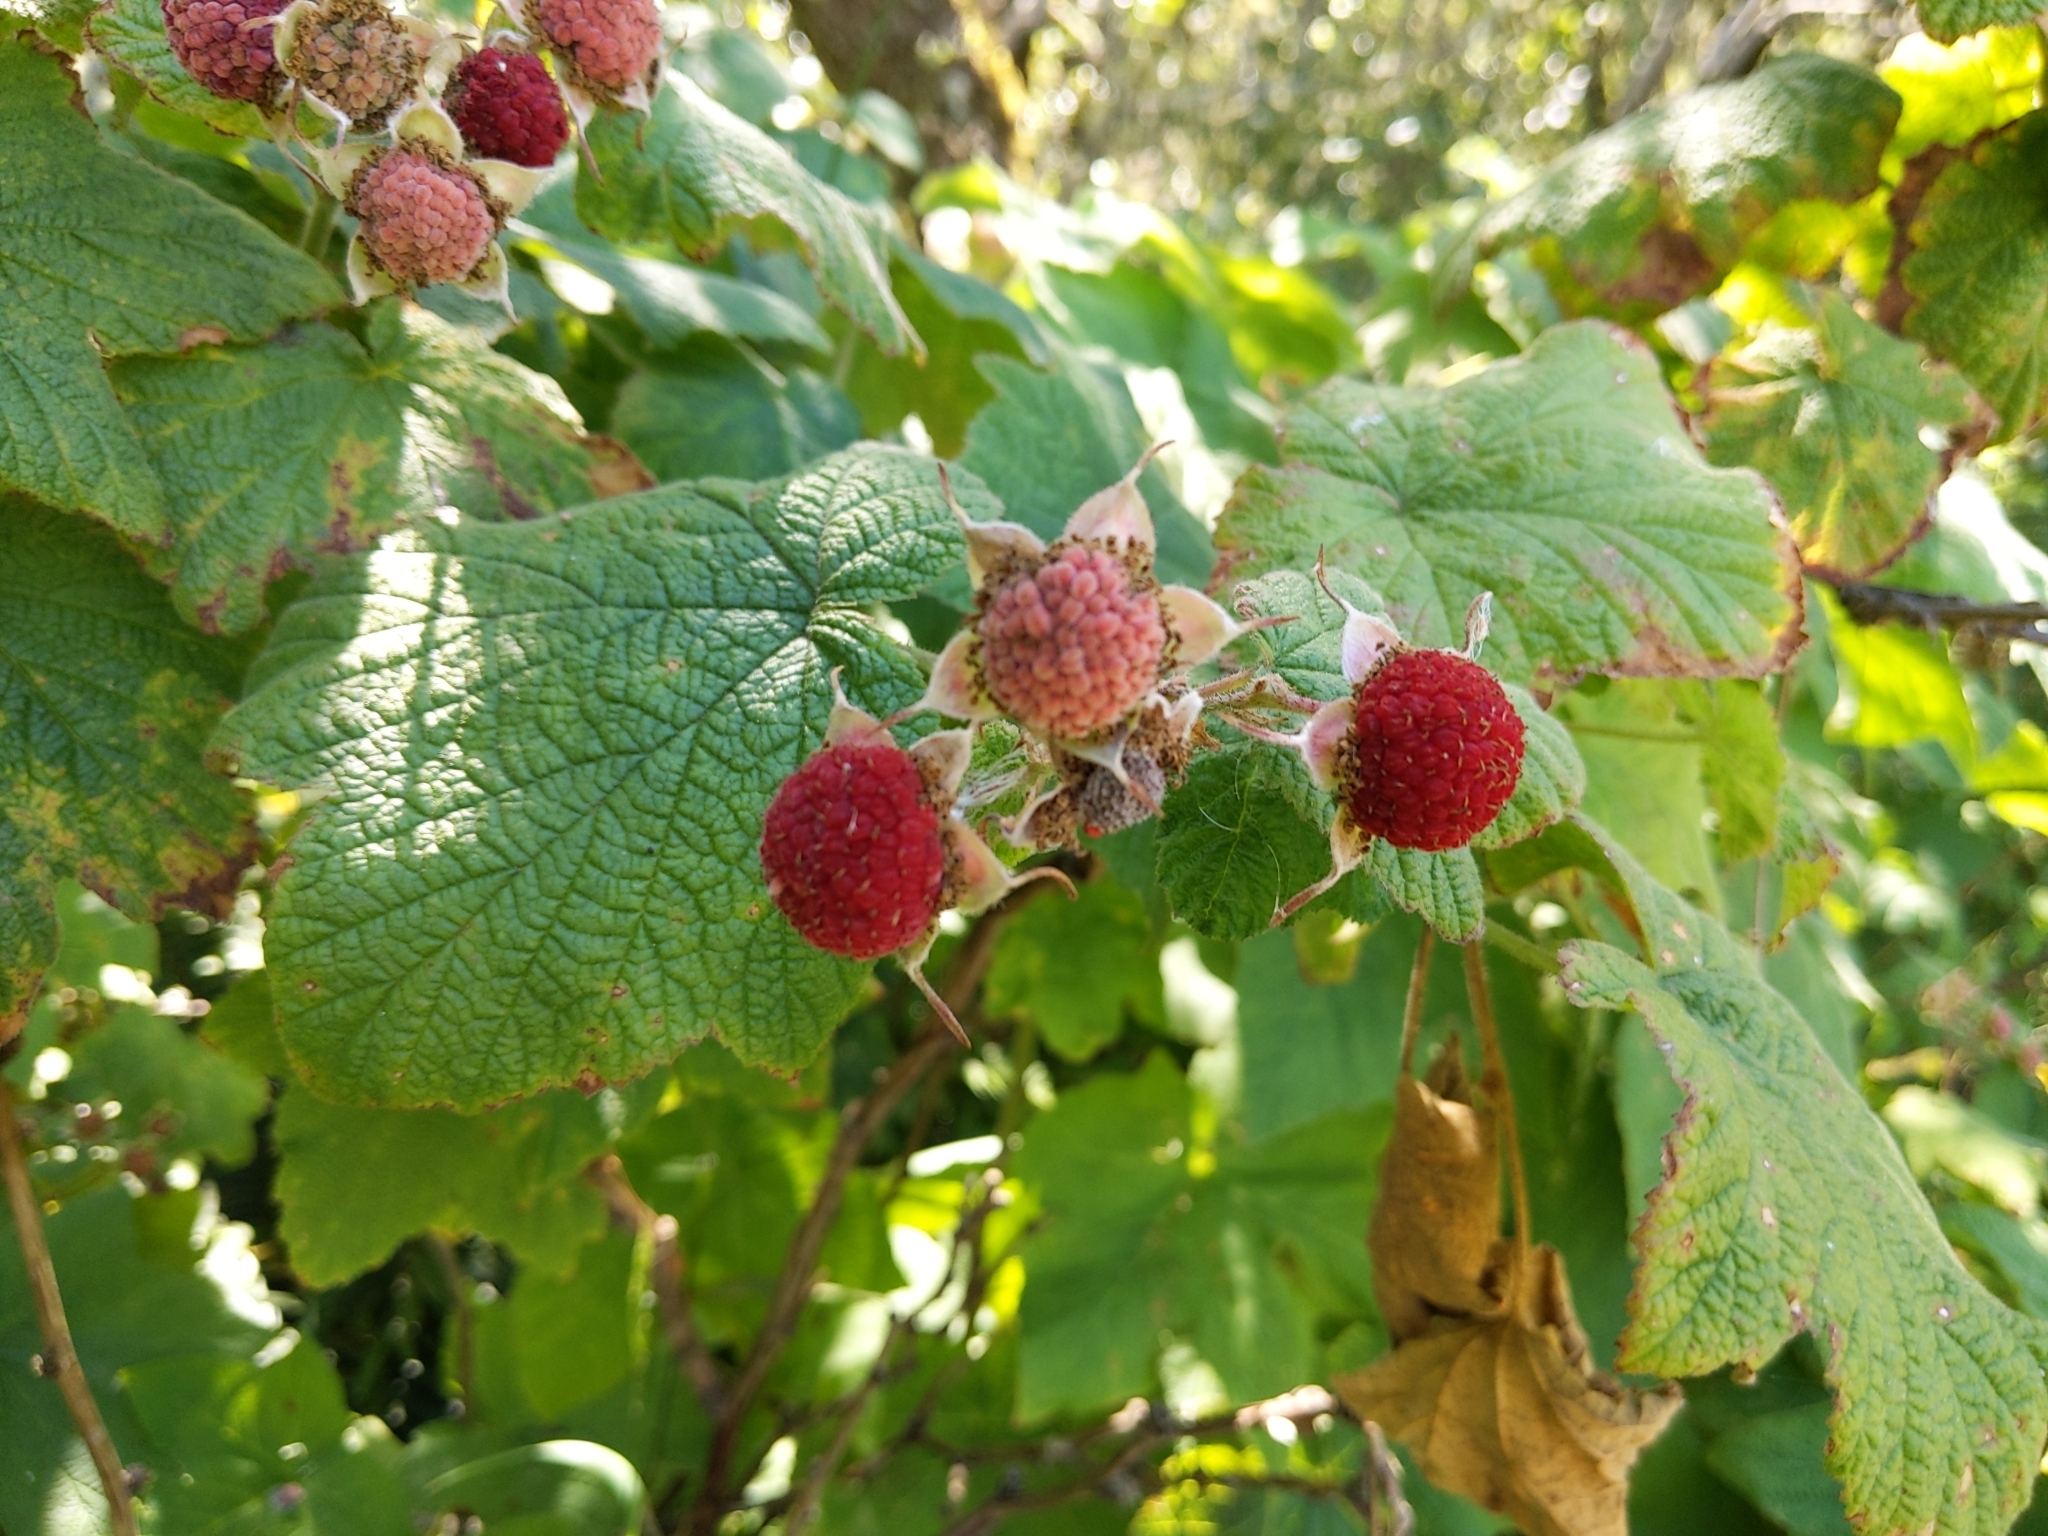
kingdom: Plantae
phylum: Tracheophyta
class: Magnoliopsida
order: Rosales
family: Rosaceae
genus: Rubus
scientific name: Rubus parviflorus
